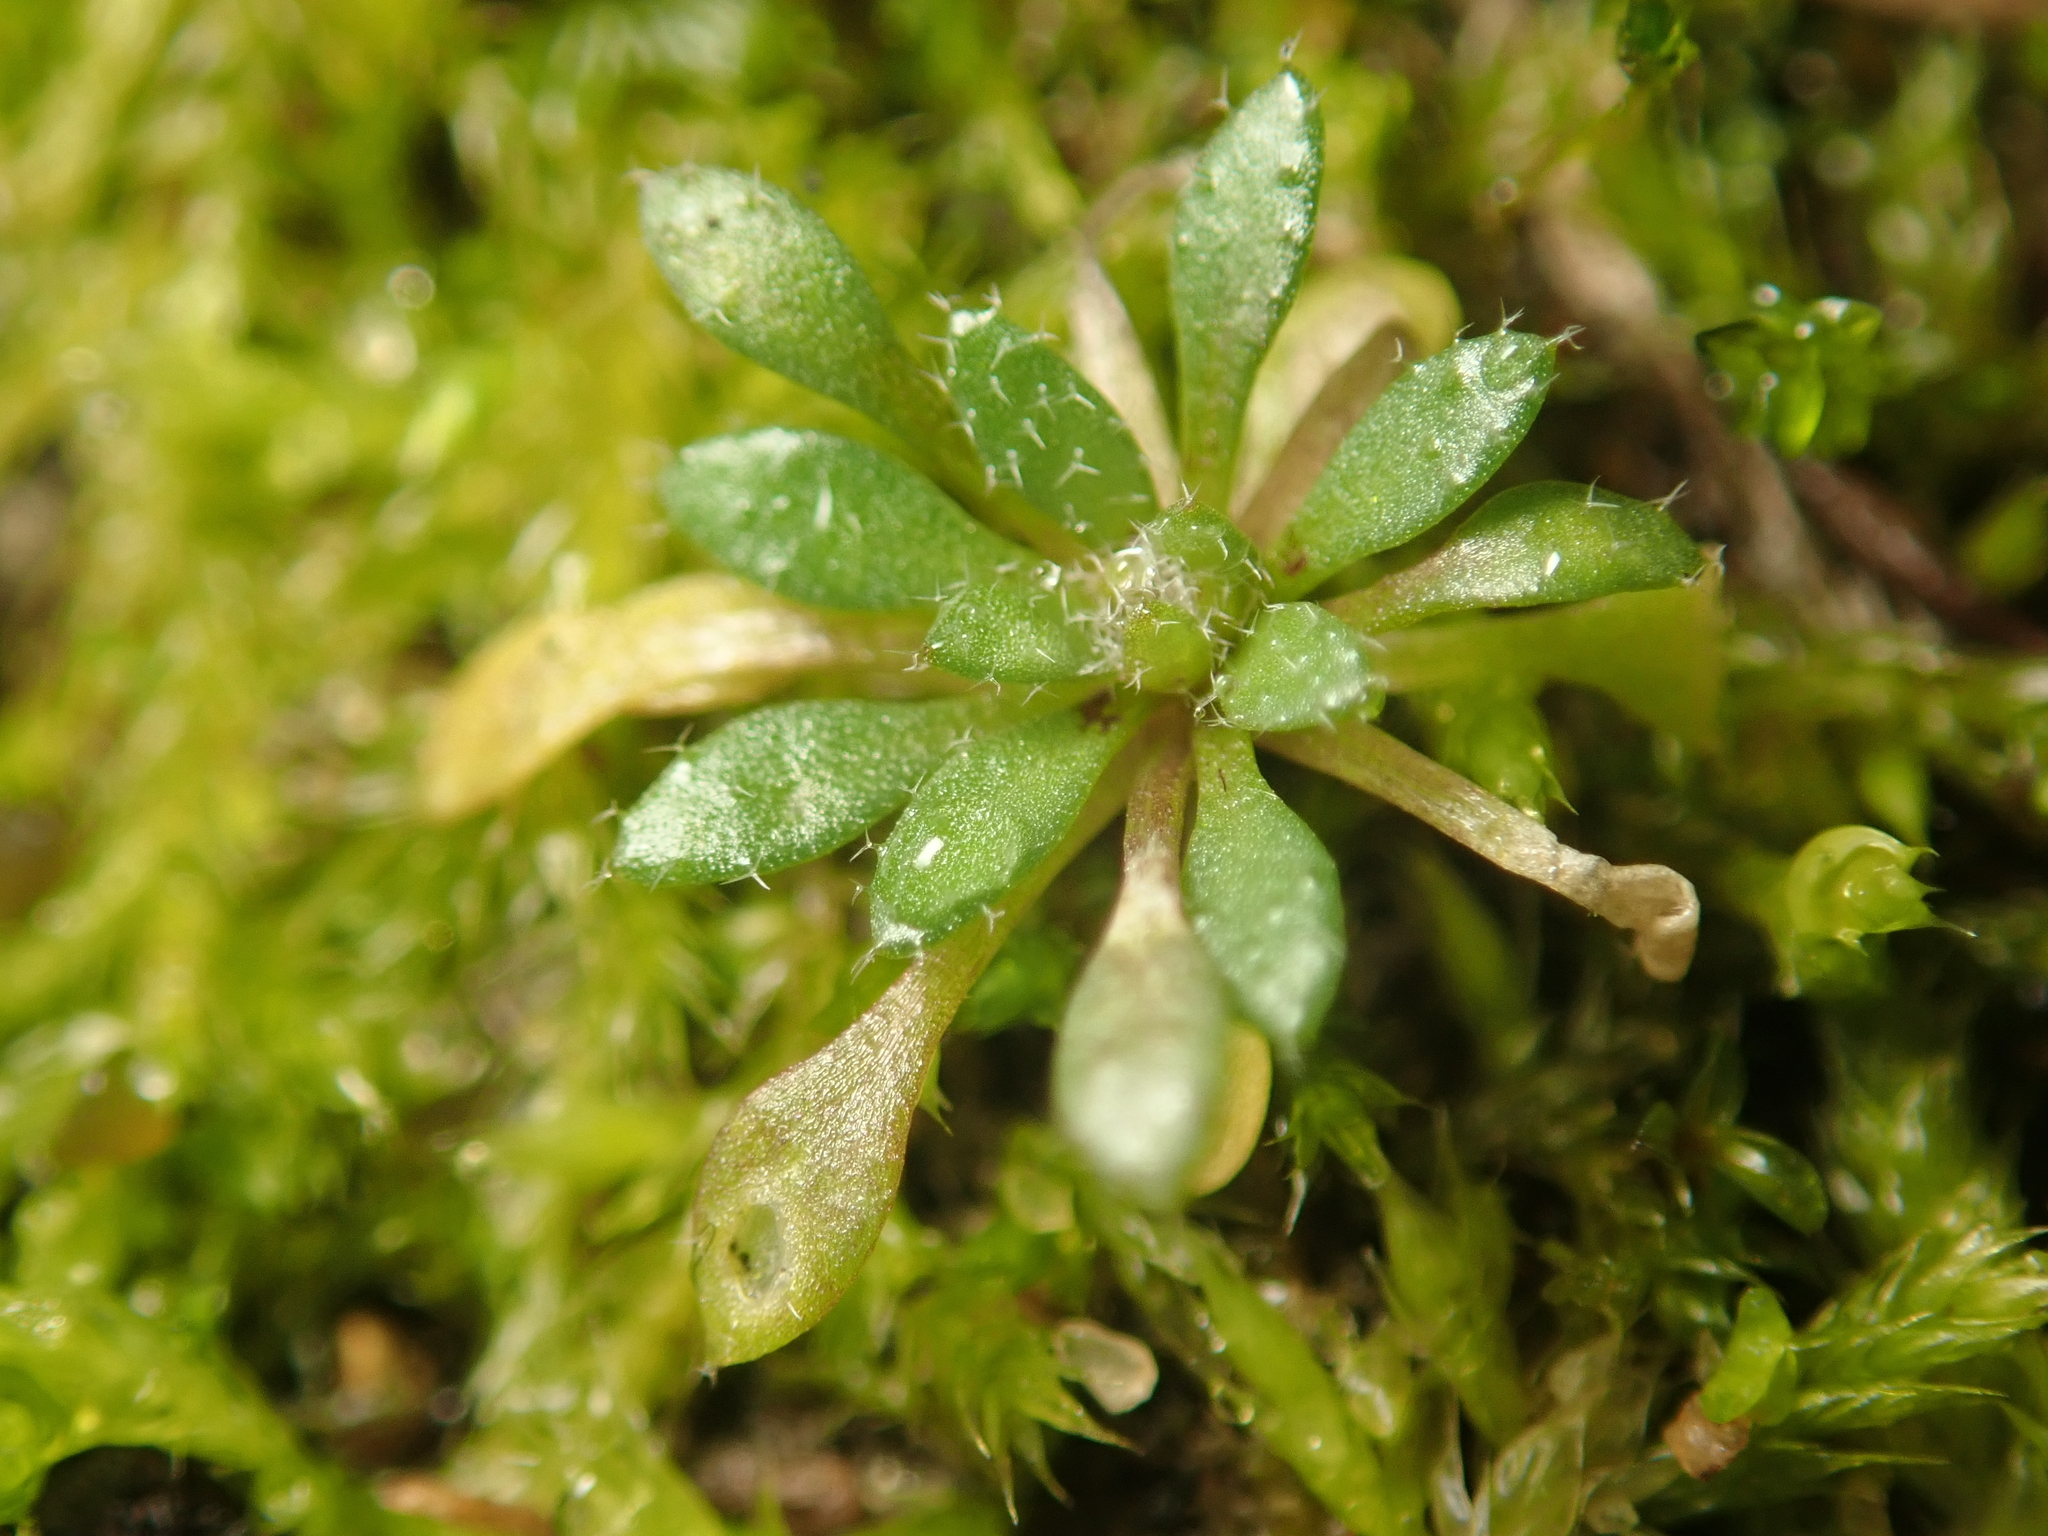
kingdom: Plantae
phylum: Tracheophyta
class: Magnoliopsida
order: Brassicales
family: Brassicaceae
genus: Draba
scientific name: Draba verna
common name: Spring draba
